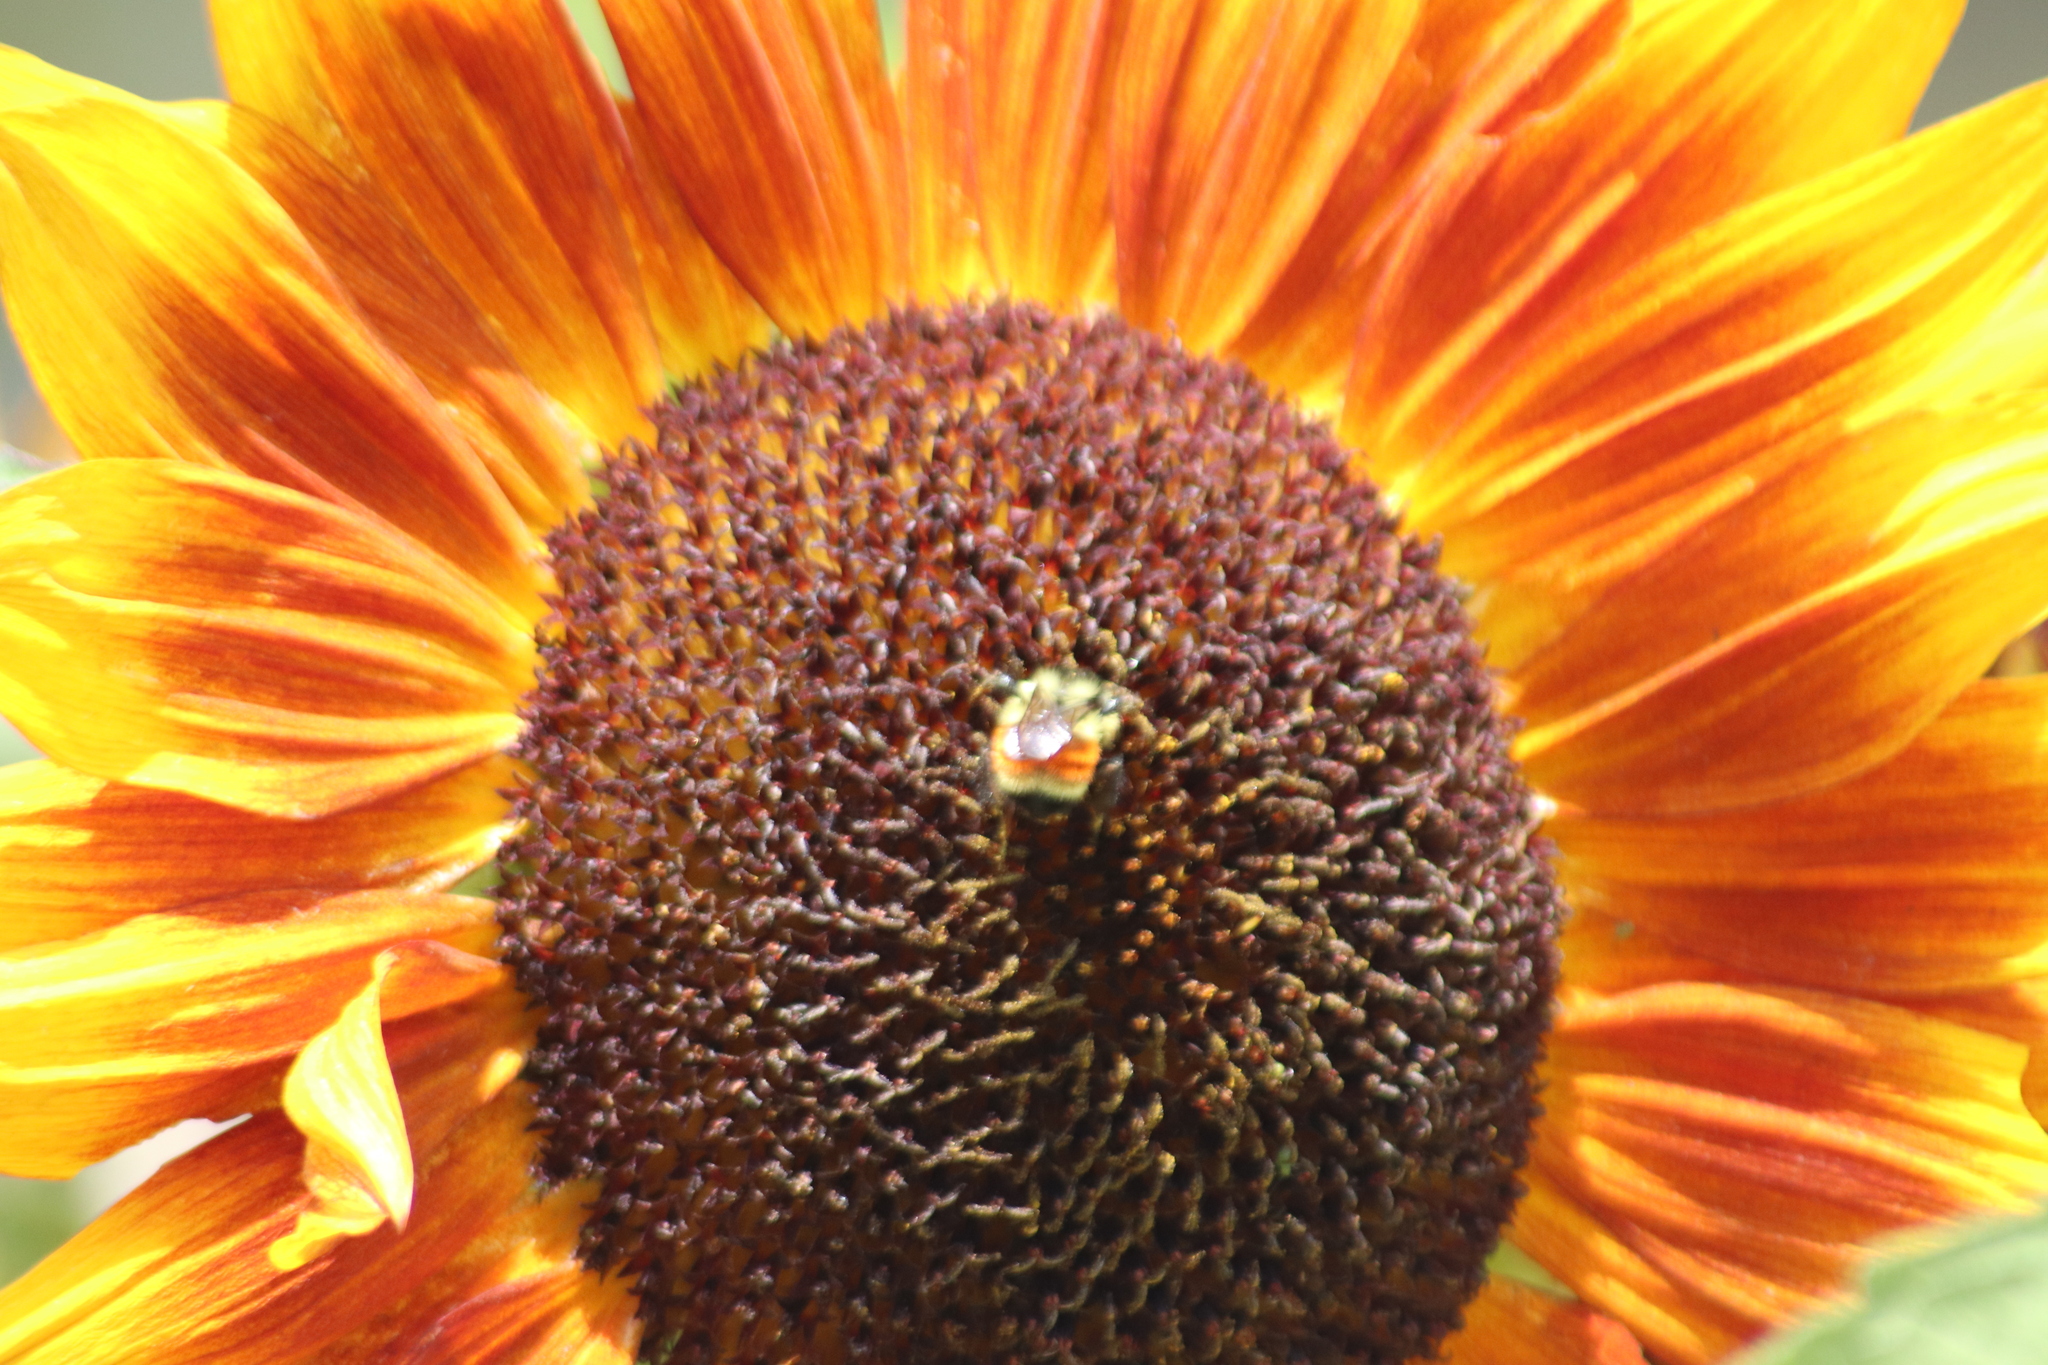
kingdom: Animalia
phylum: Arthropoda
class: Insecta
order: Hymenoptera
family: Apidae
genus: Bombus
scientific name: Bombus ternarius
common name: Tri-colored bumble bee
